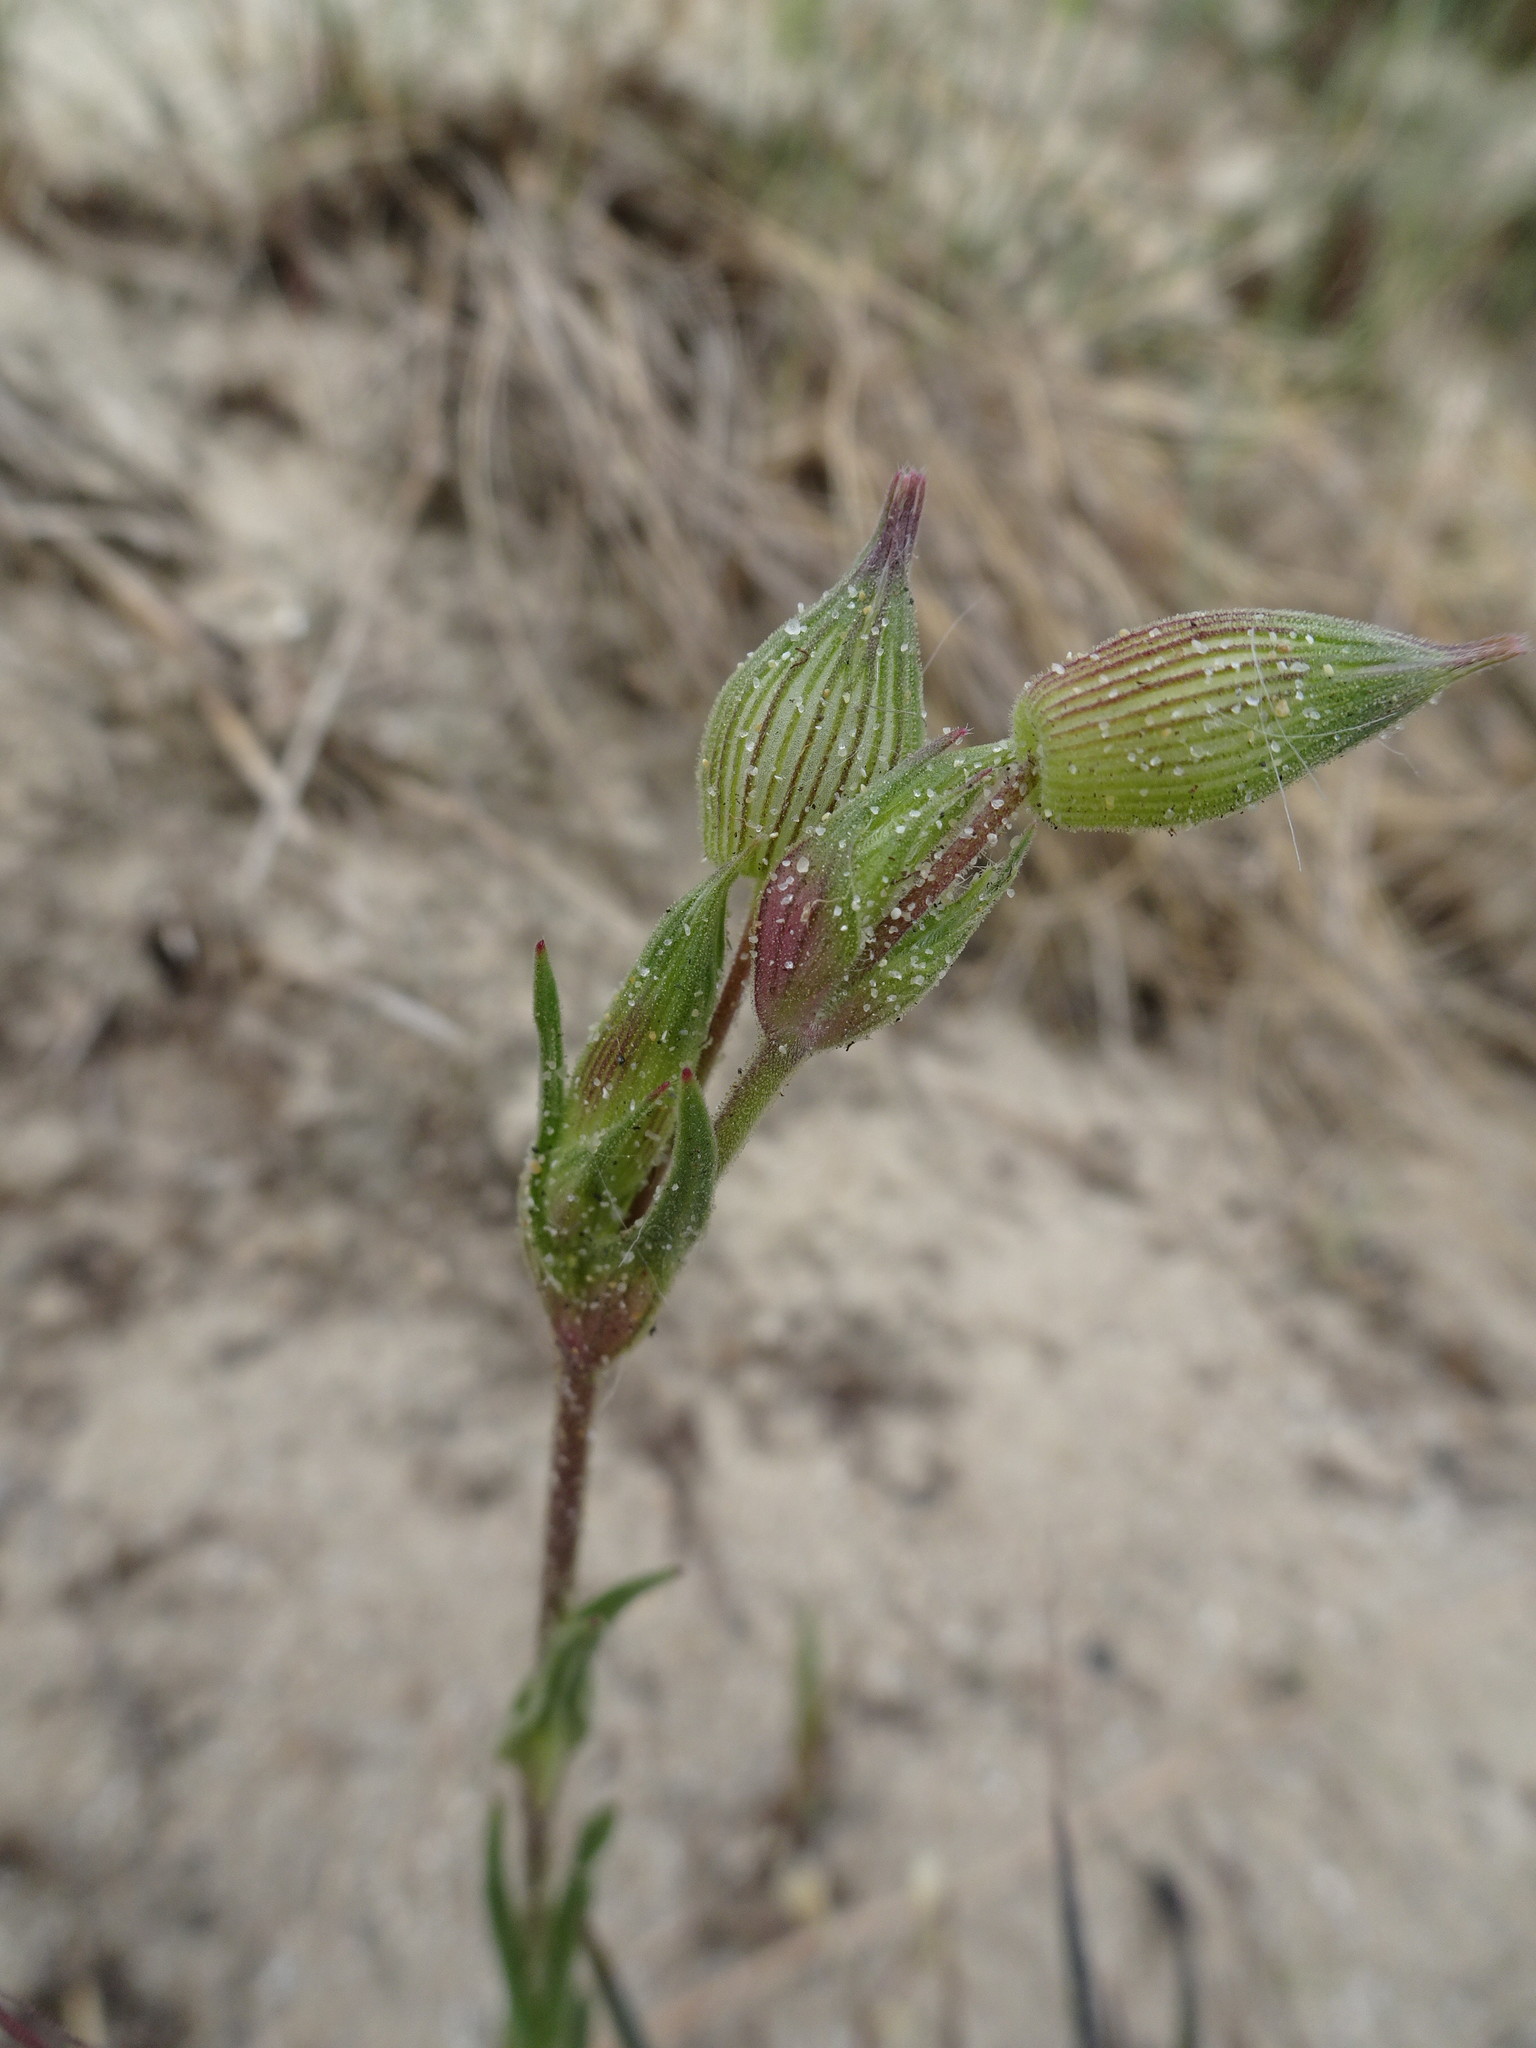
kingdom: Plantae
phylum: Tracheophyta
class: Magnoliopsida
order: Caryophyllales
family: Caryophyllaceae
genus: Silene
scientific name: Silene conica
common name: Sand catchfly
